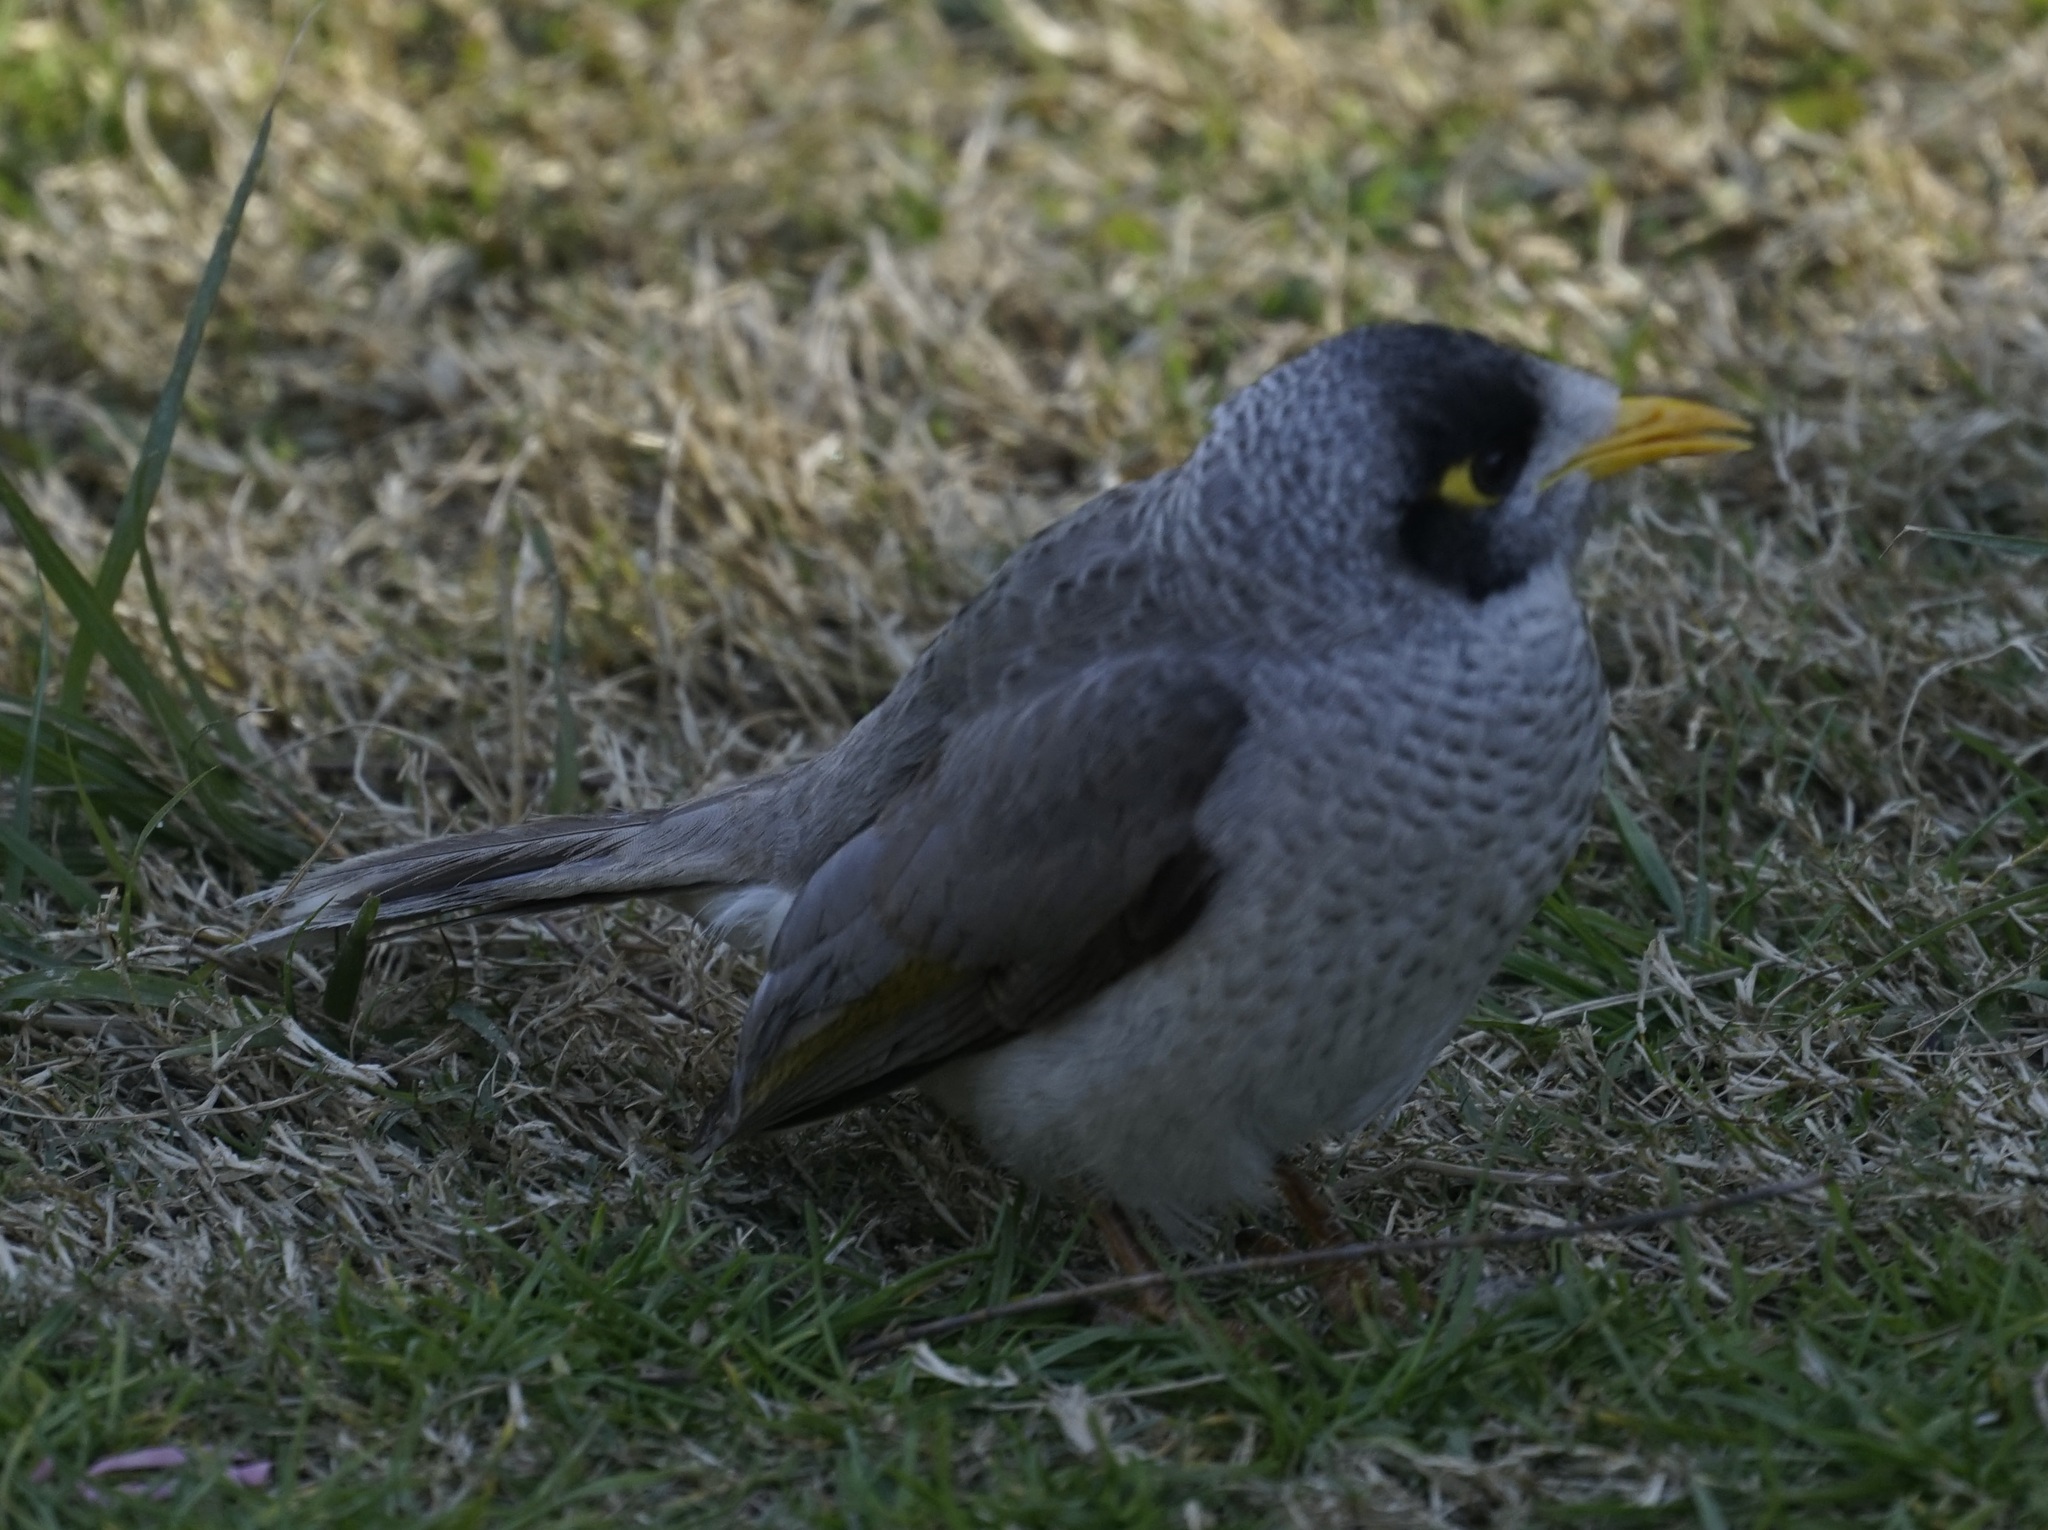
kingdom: Animalia
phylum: Chordata
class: Aves
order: Passeriformes
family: Meliphagidae
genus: Manorina
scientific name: Manorina melanocephala
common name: Noisy miner
